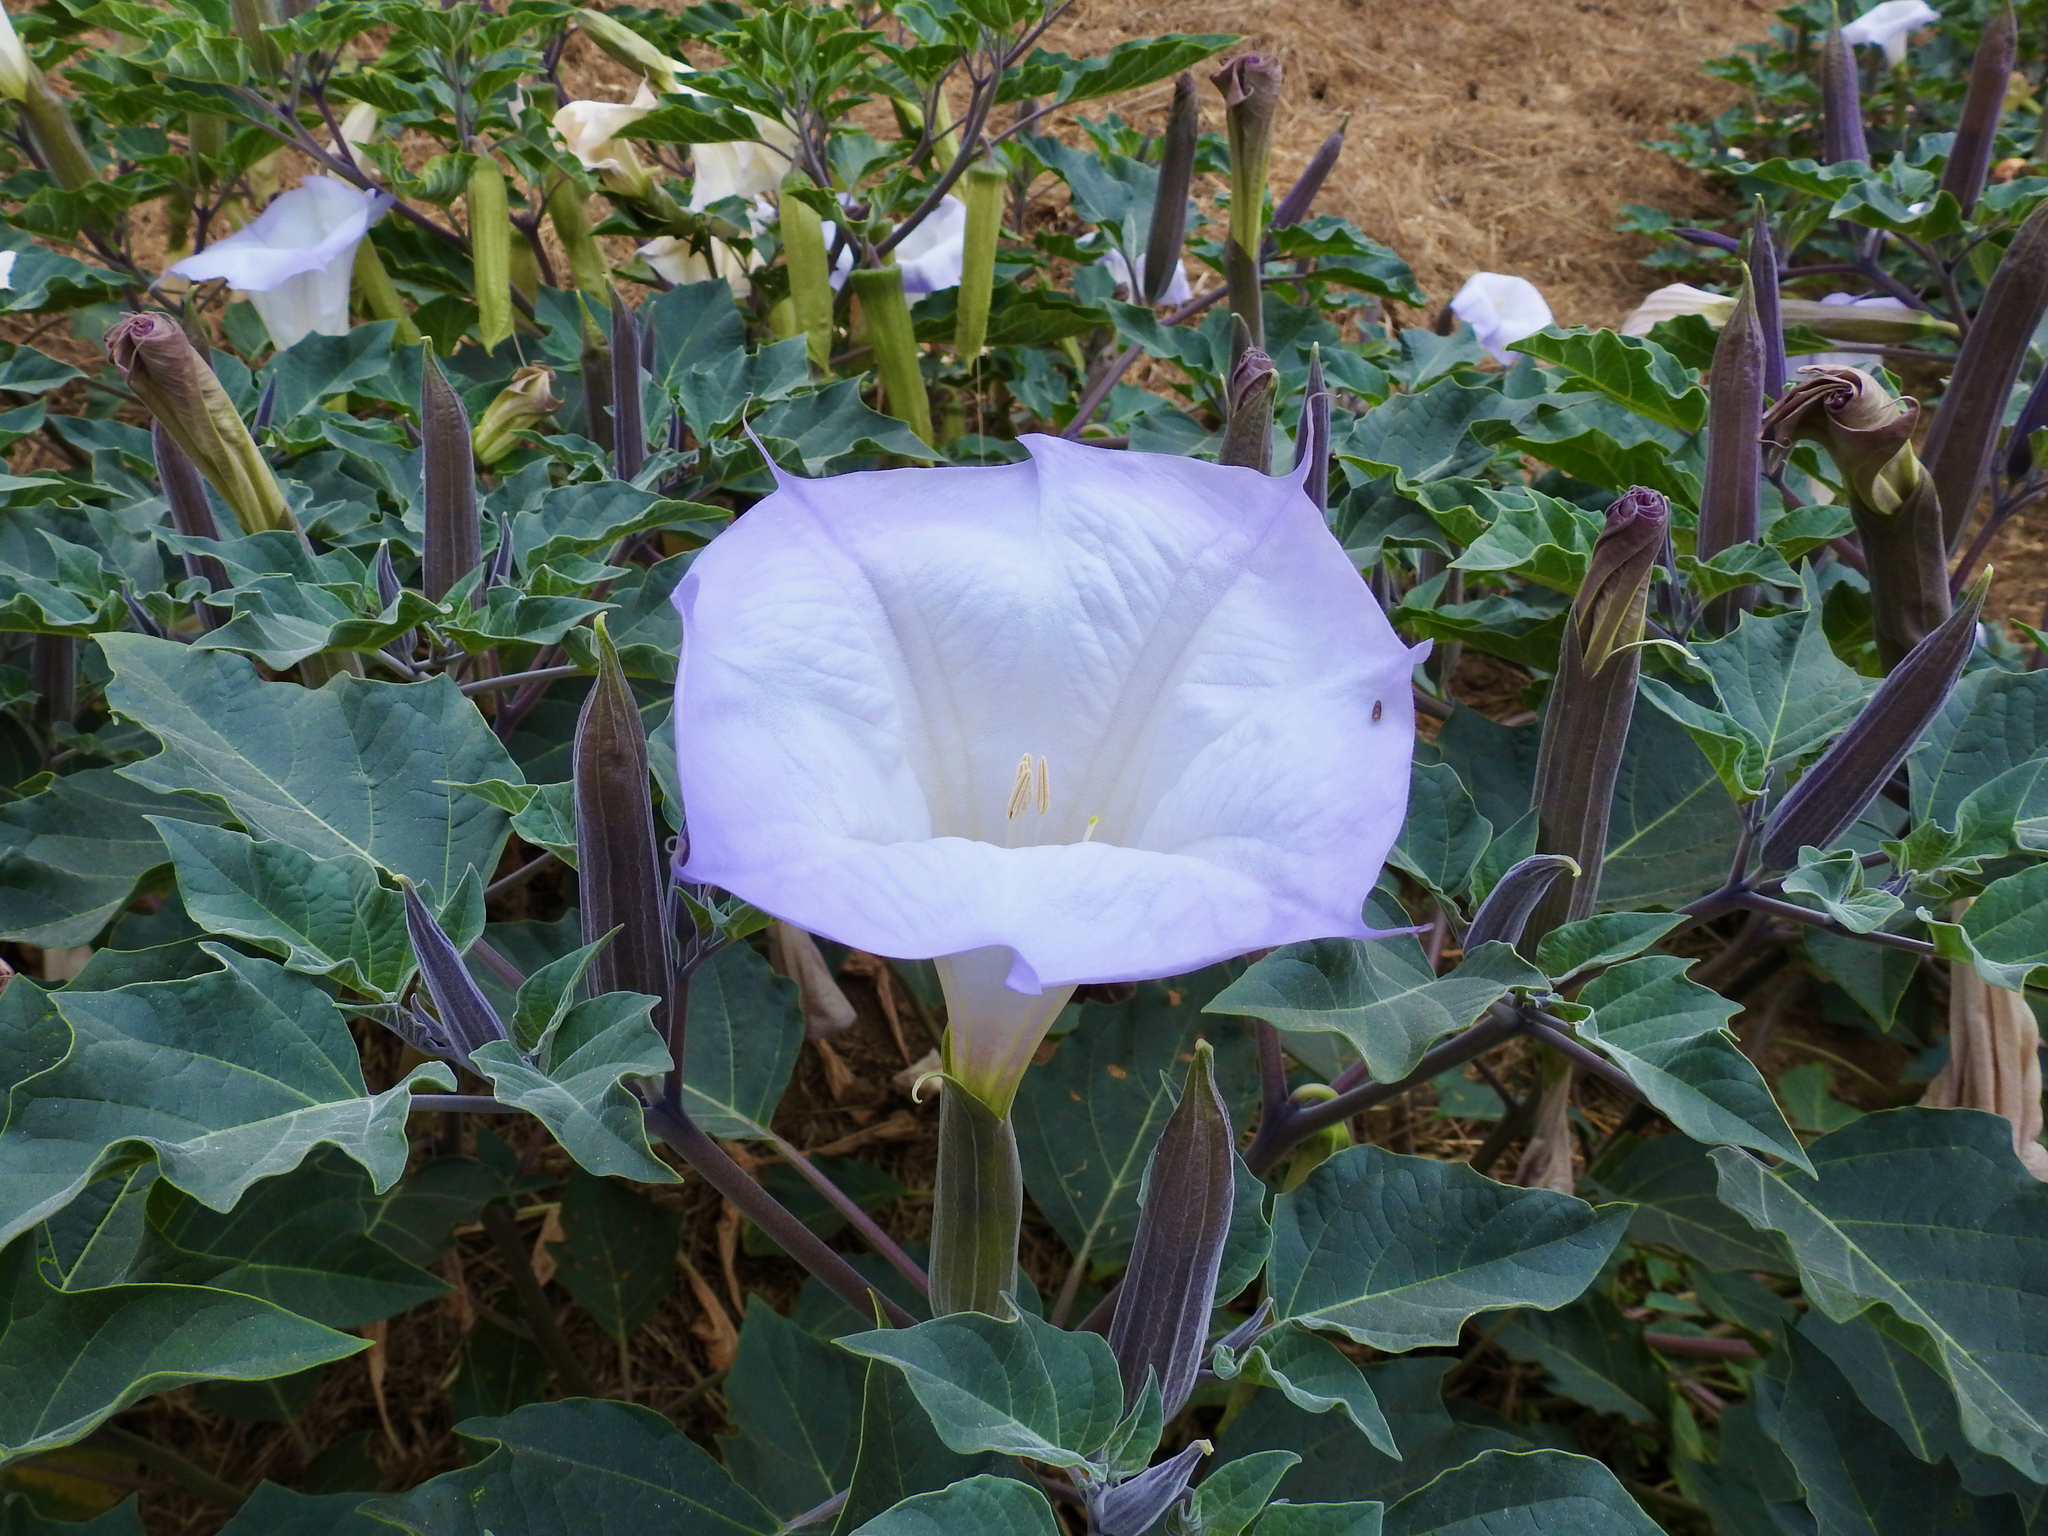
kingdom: Plantae
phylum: Tracheophyta
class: Magnoliopsida
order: Solanales
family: Solanaceae
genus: Datura
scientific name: Datura wrightii
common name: Sacred thorn-apple
